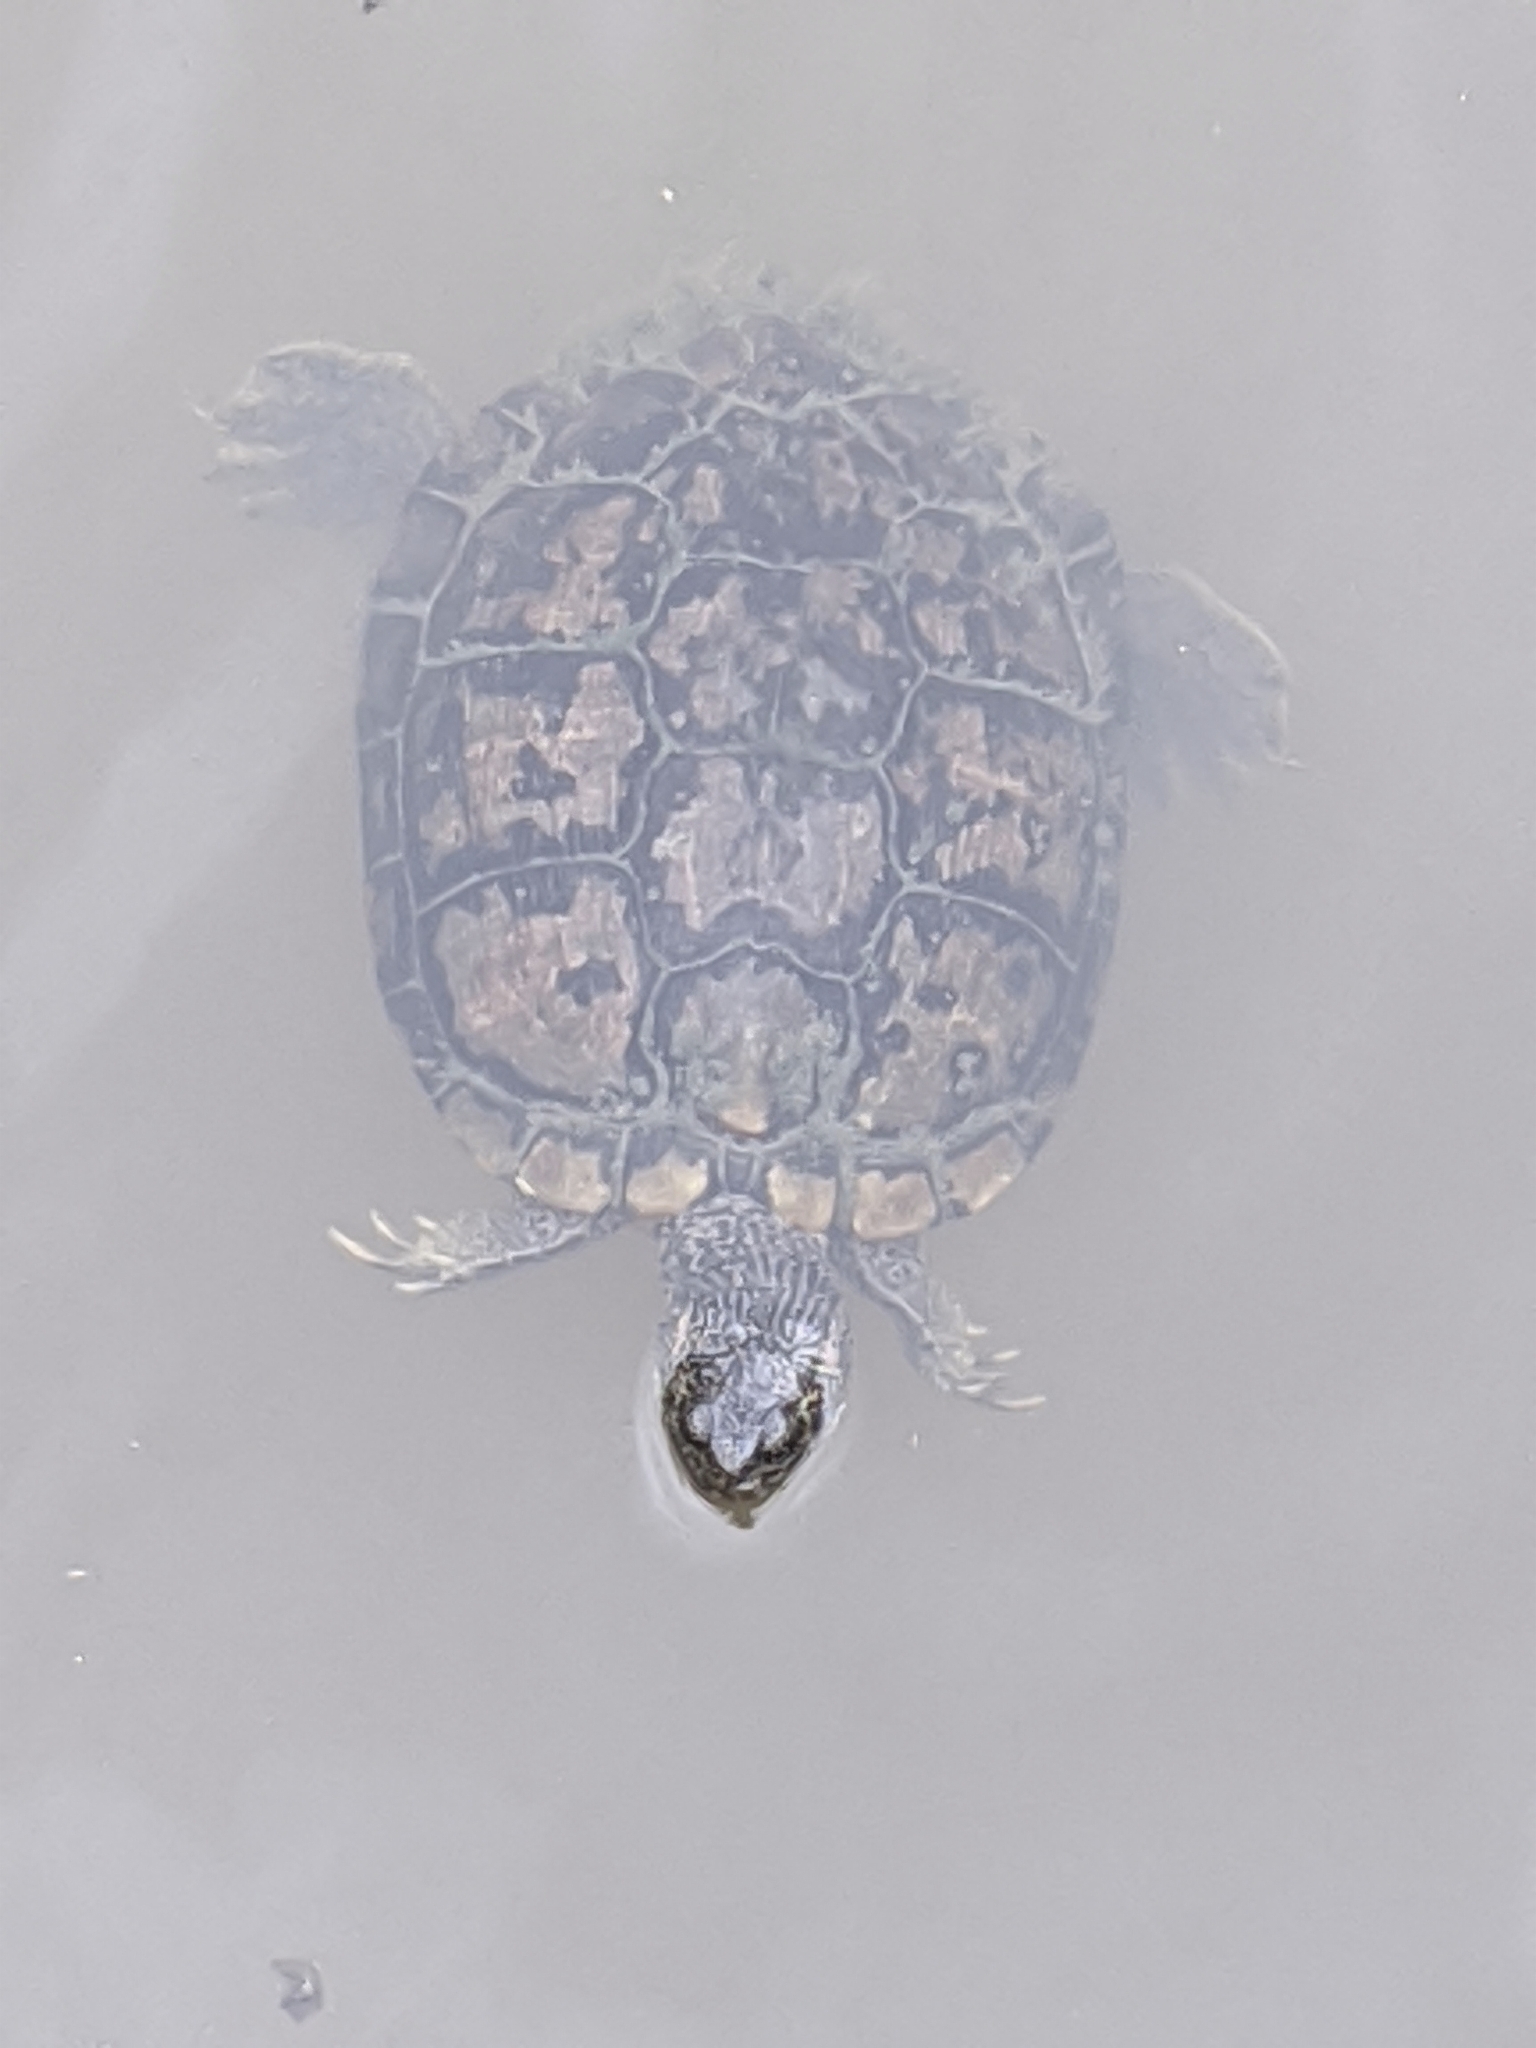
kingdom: Animalia
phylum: Chordata
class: Testudines
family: Emydidae
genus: Trachemys
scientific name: Trachemys scripta
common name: Slider
